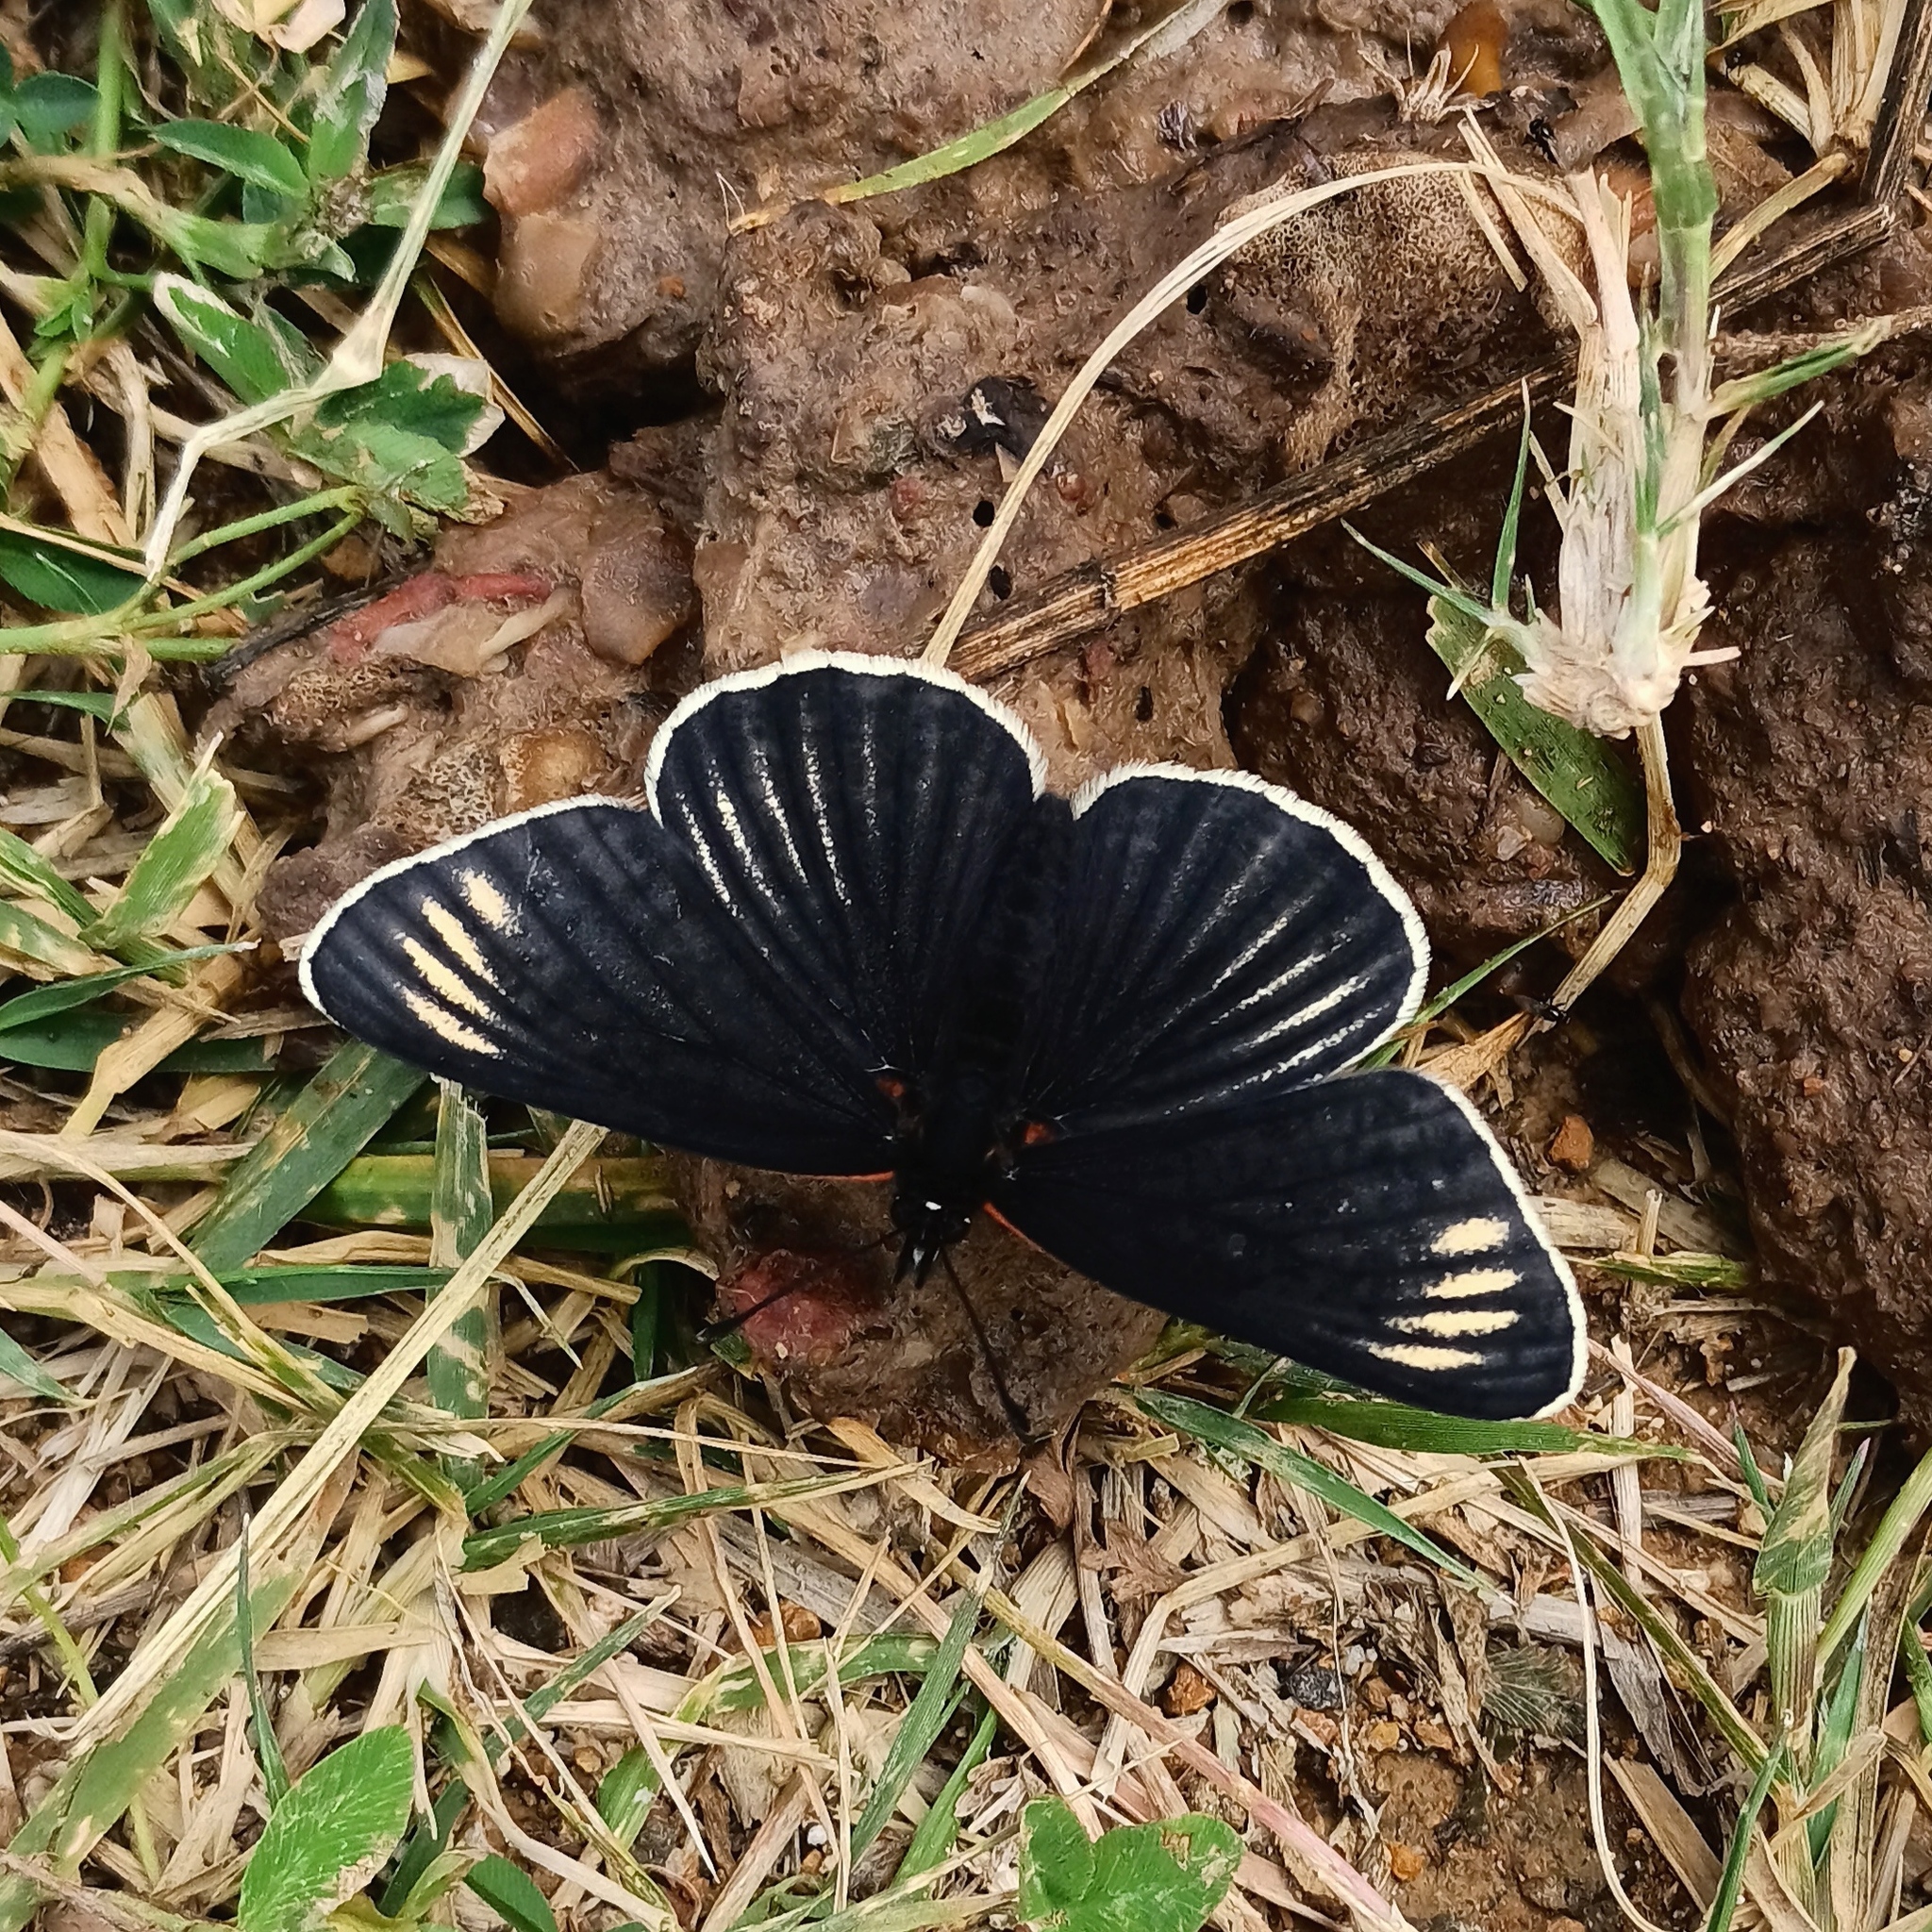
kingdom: Animalia
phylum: Arthropoda
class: Insecta
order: Lepidoptera
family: Nymphalidae
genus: Chlosyne
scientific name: Chlosyne ehrenbergii
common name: White-rayed patch
